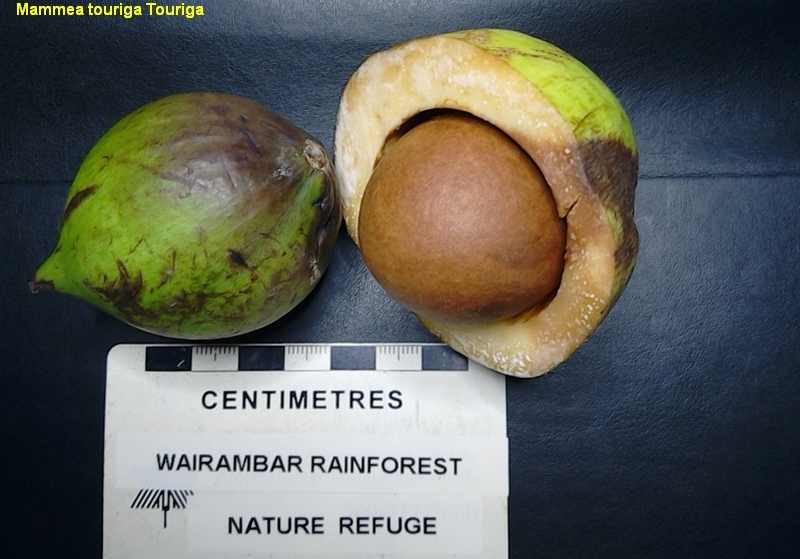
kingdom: Plantae
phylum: Tracheophyta
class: Magnoliopsida
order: Malpighiales
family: Calophyllaceae
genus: Mammea
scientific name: Mammea touriga
